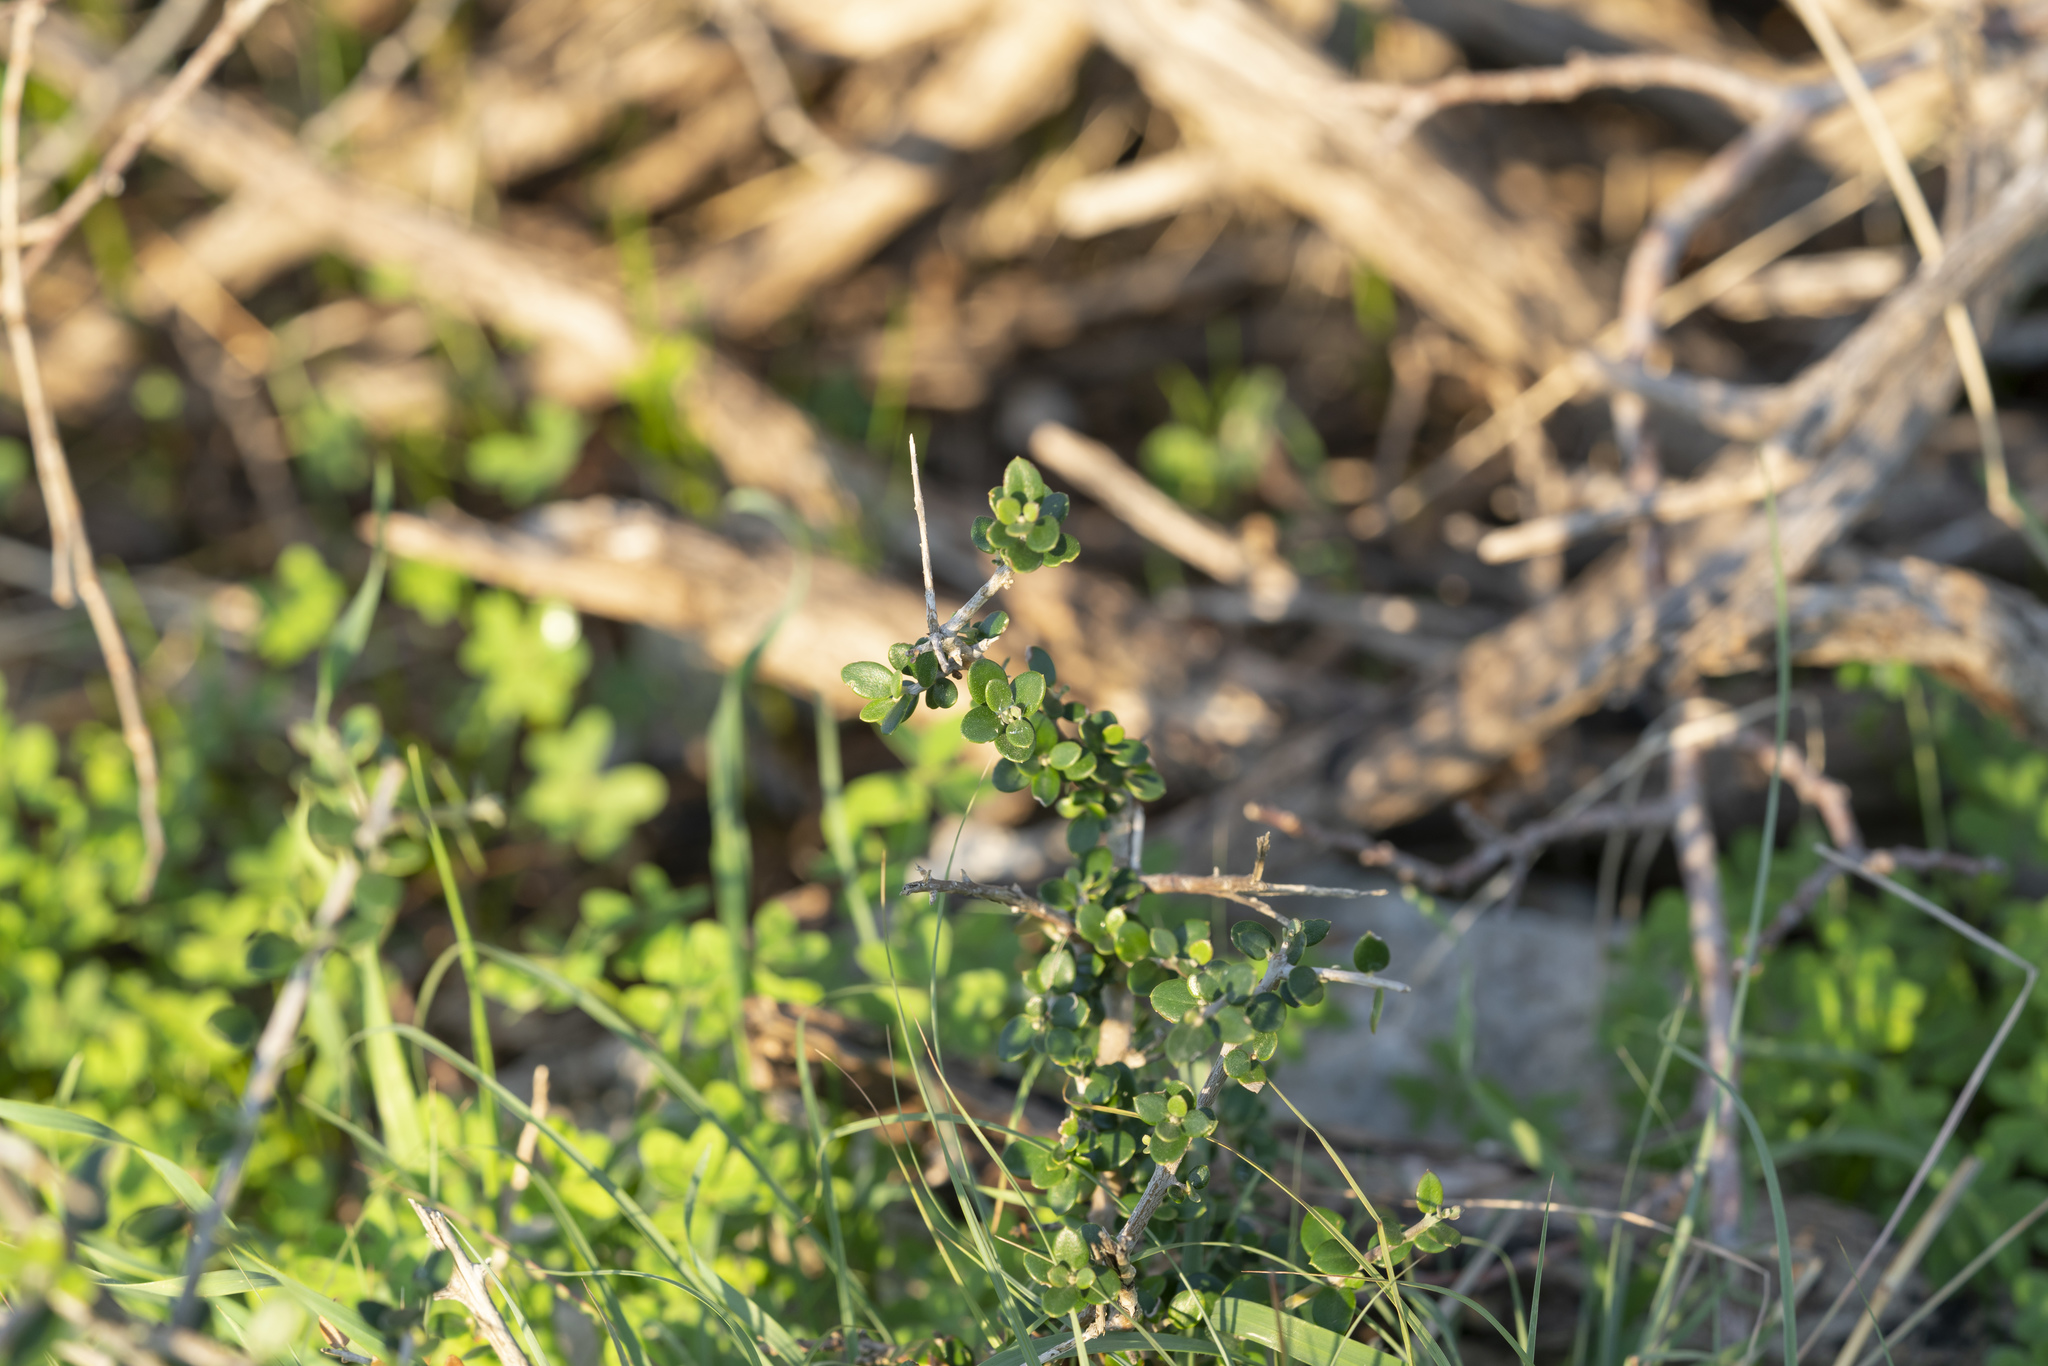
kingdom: Plantae
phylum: Tracheophyta
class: Magnoliopsida
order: Lamiales
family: Oleaceae
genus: Olea
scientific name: Olea europaea
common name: Olive
